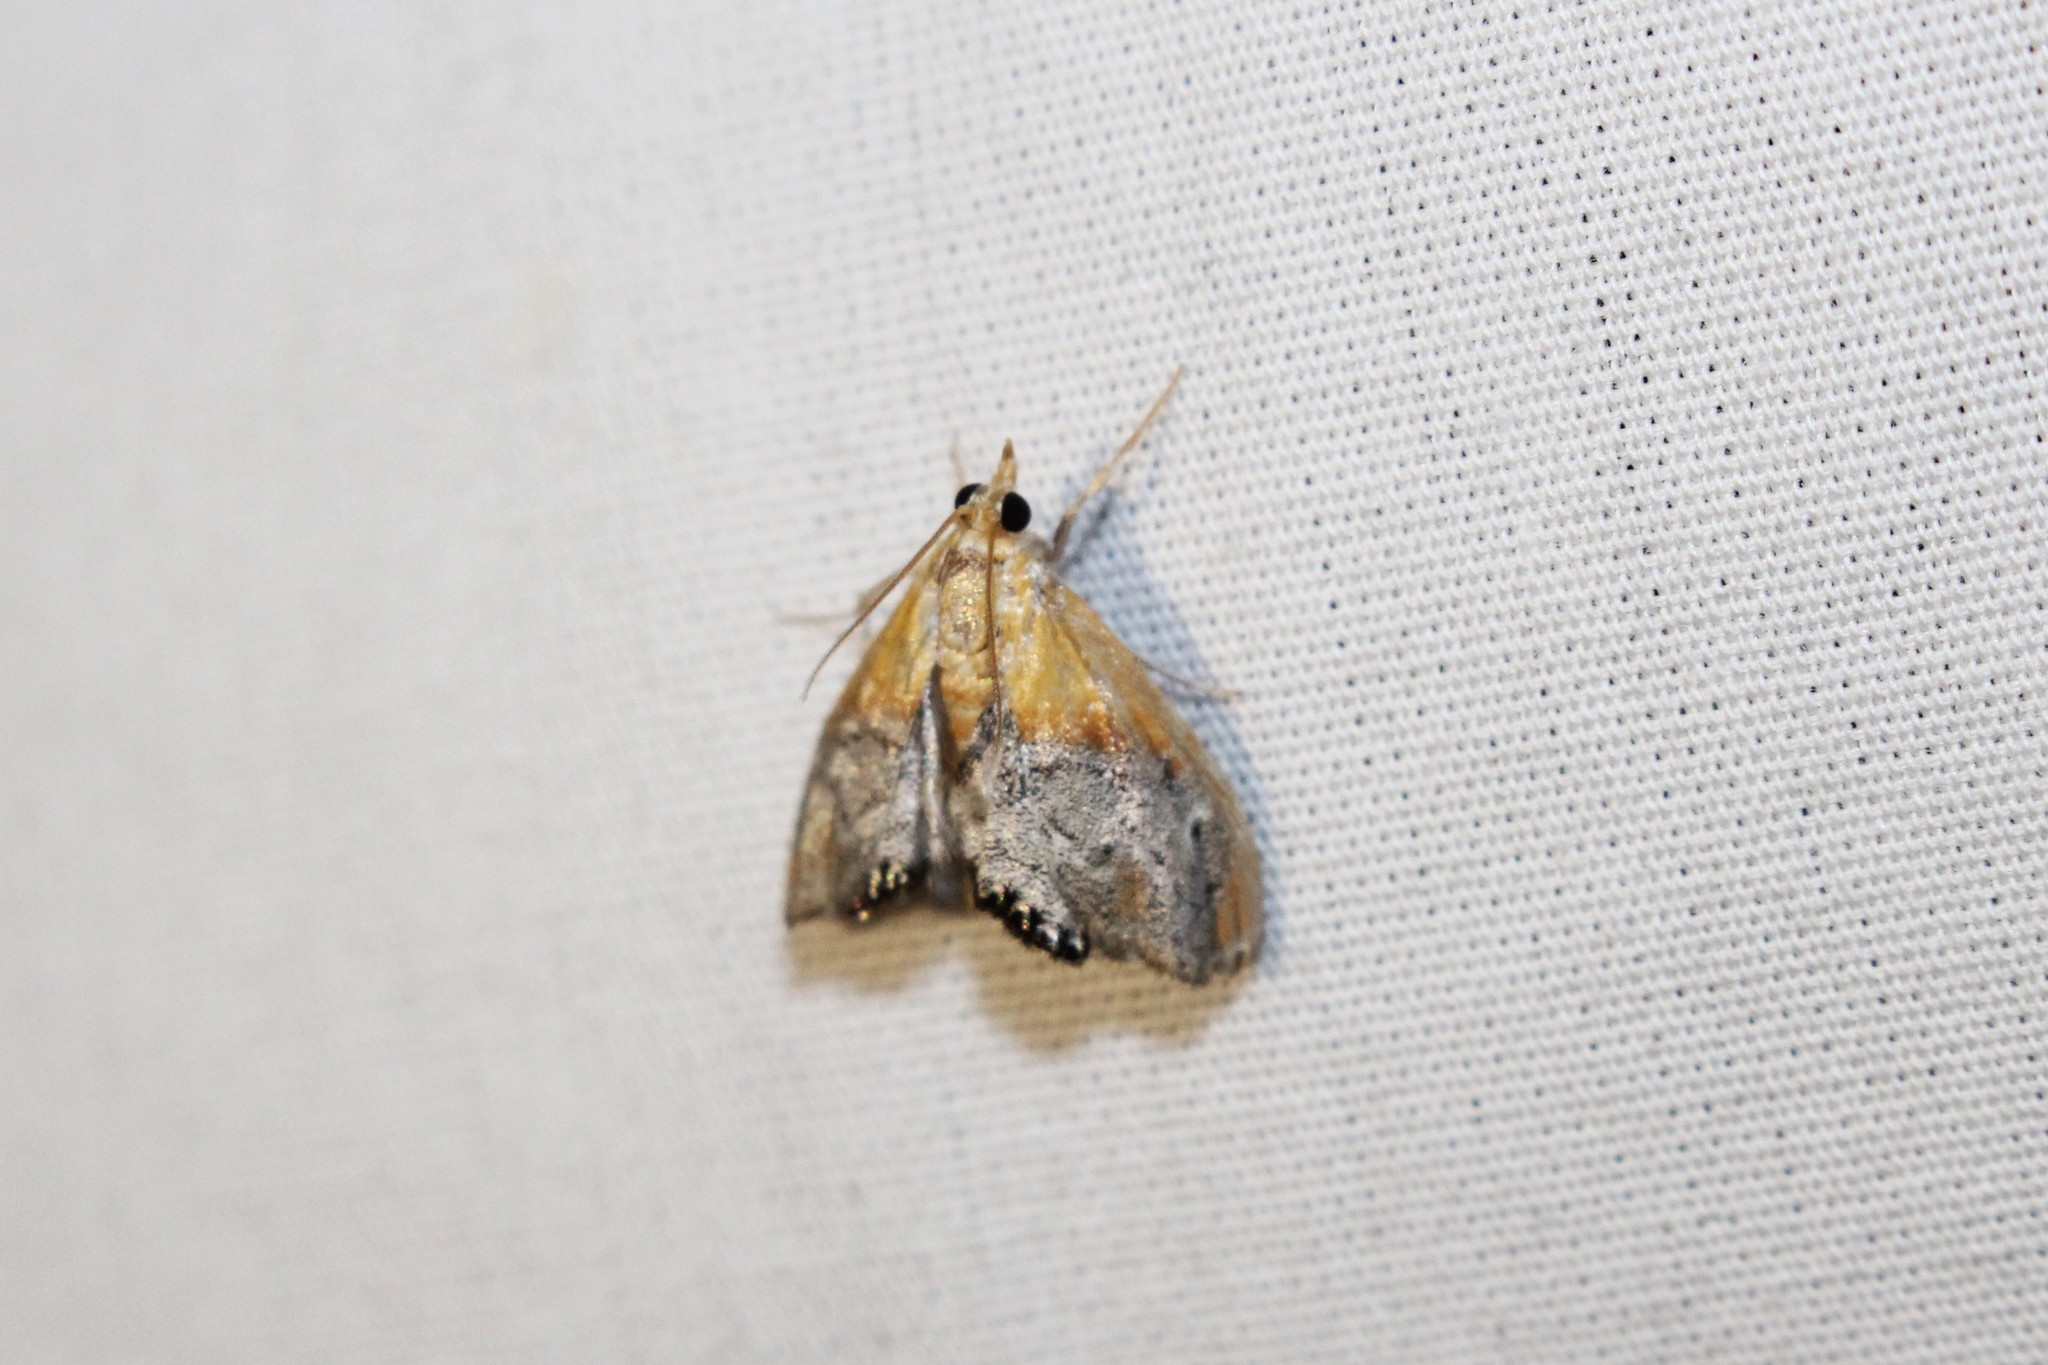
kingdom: Animalia
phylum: Arthropoda
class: Insecta
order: Lepidoptera
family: Crambidae
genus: Chalcoela
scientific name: Chalcoela iphitalis
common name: Sooty-winged chalcoela moth
